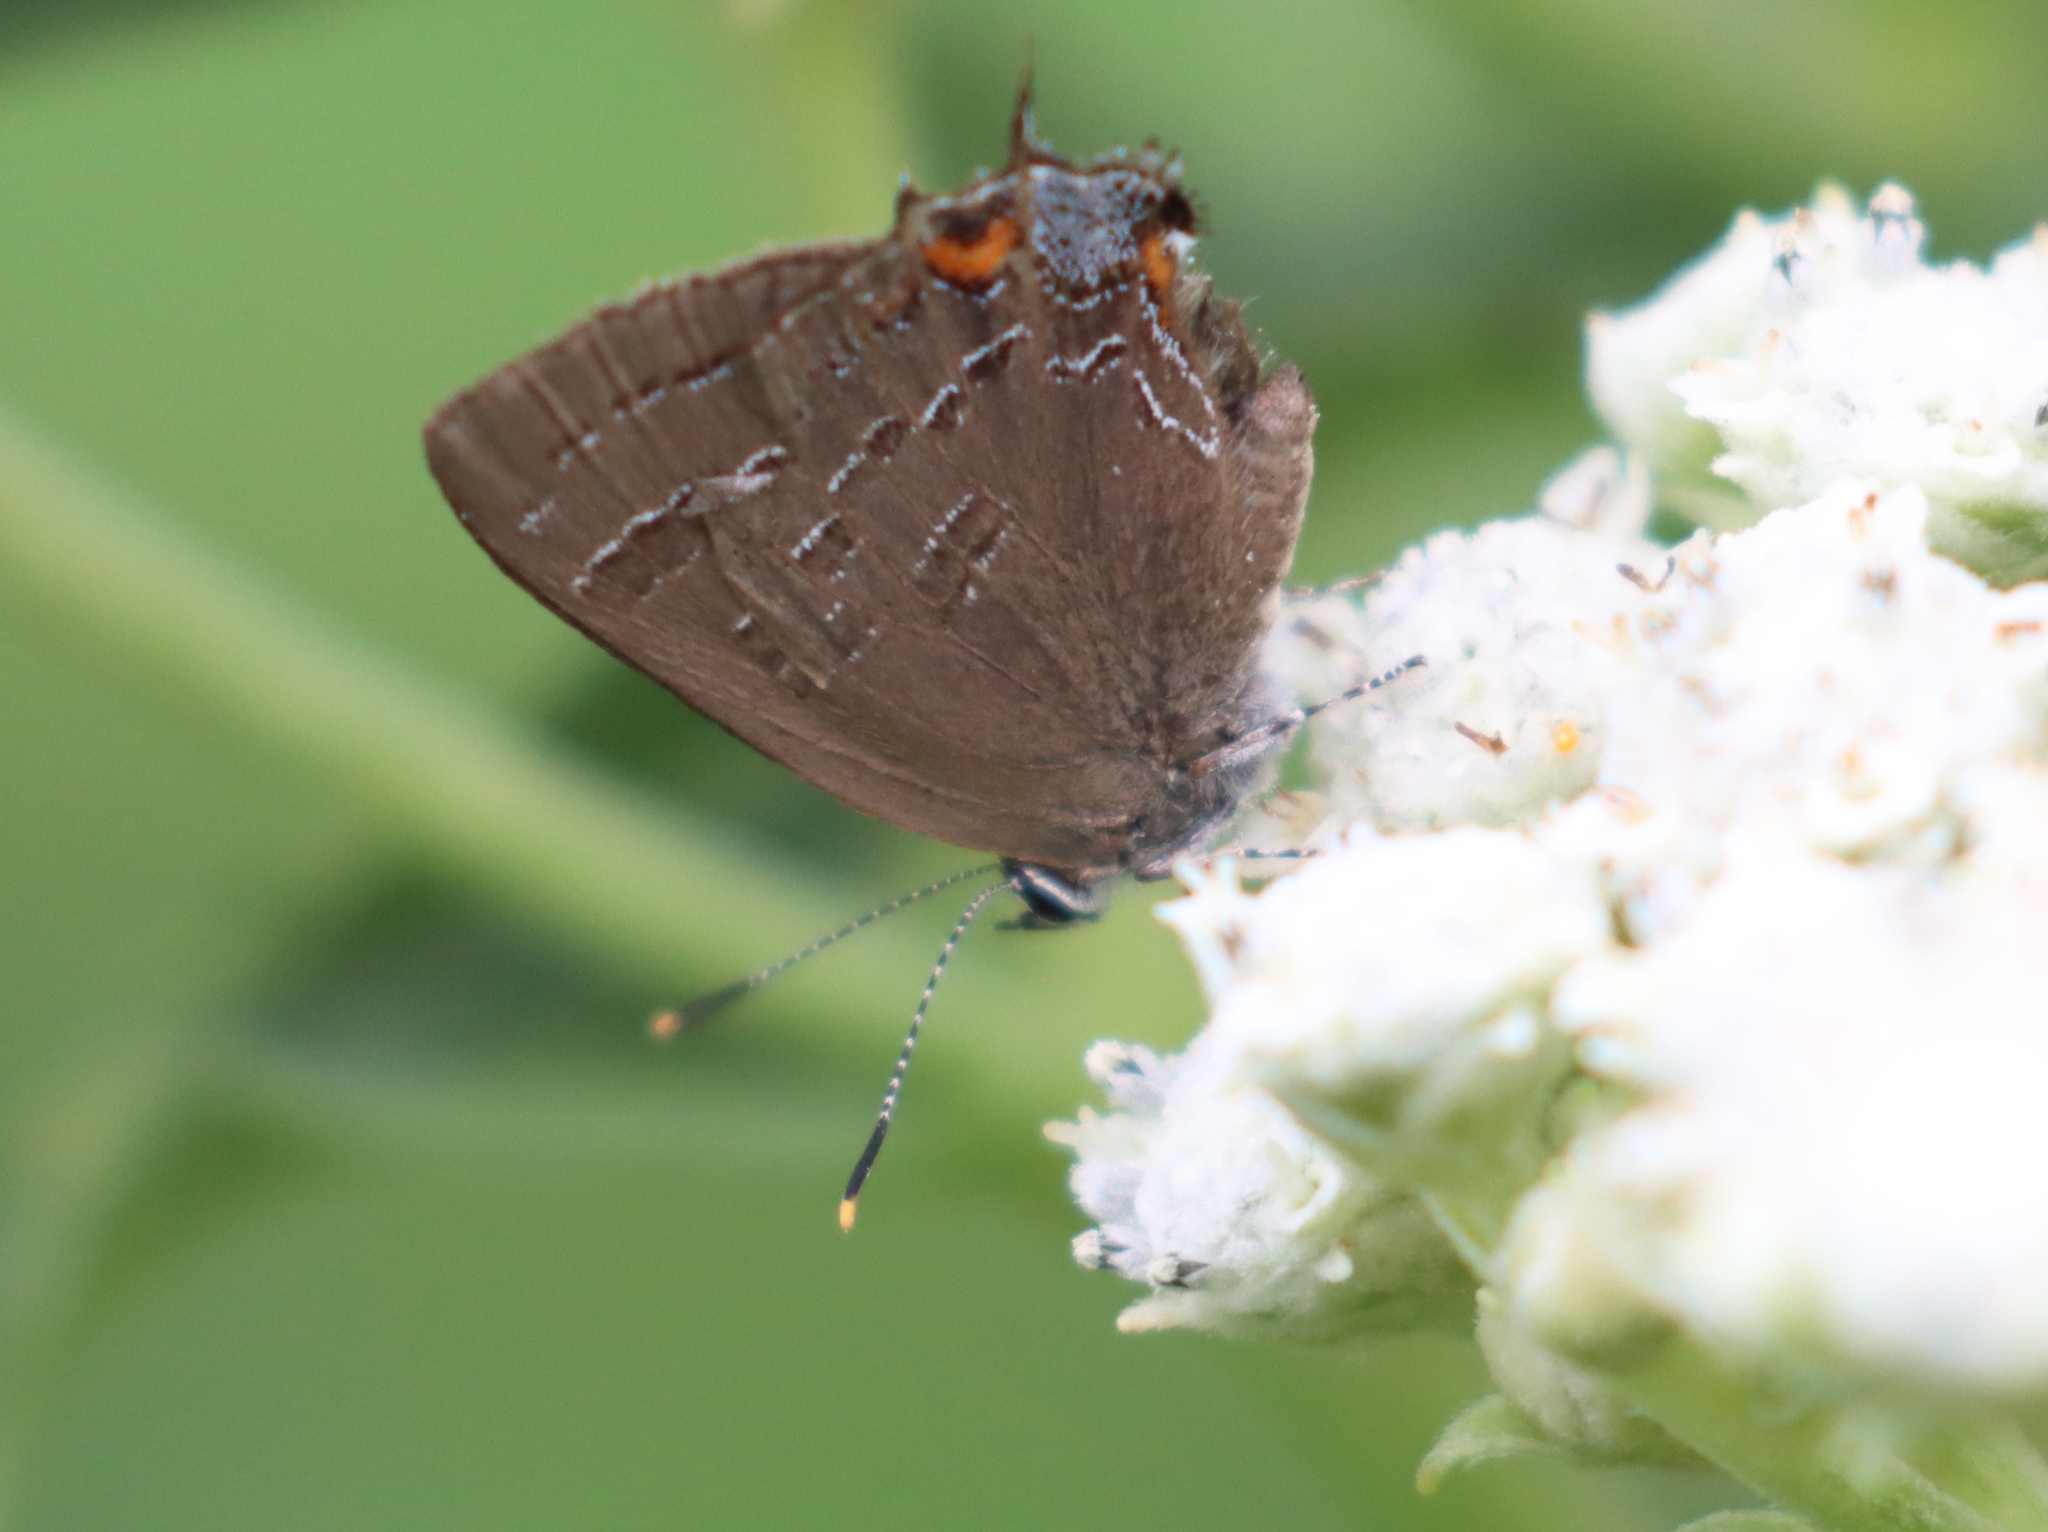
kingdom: Animalia
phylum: Arthropoda
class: Insecta
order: Lepidoptera
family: Lycaenidae
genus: Satyrium
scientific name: Satyrium calanus
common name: Banded hairstreak
